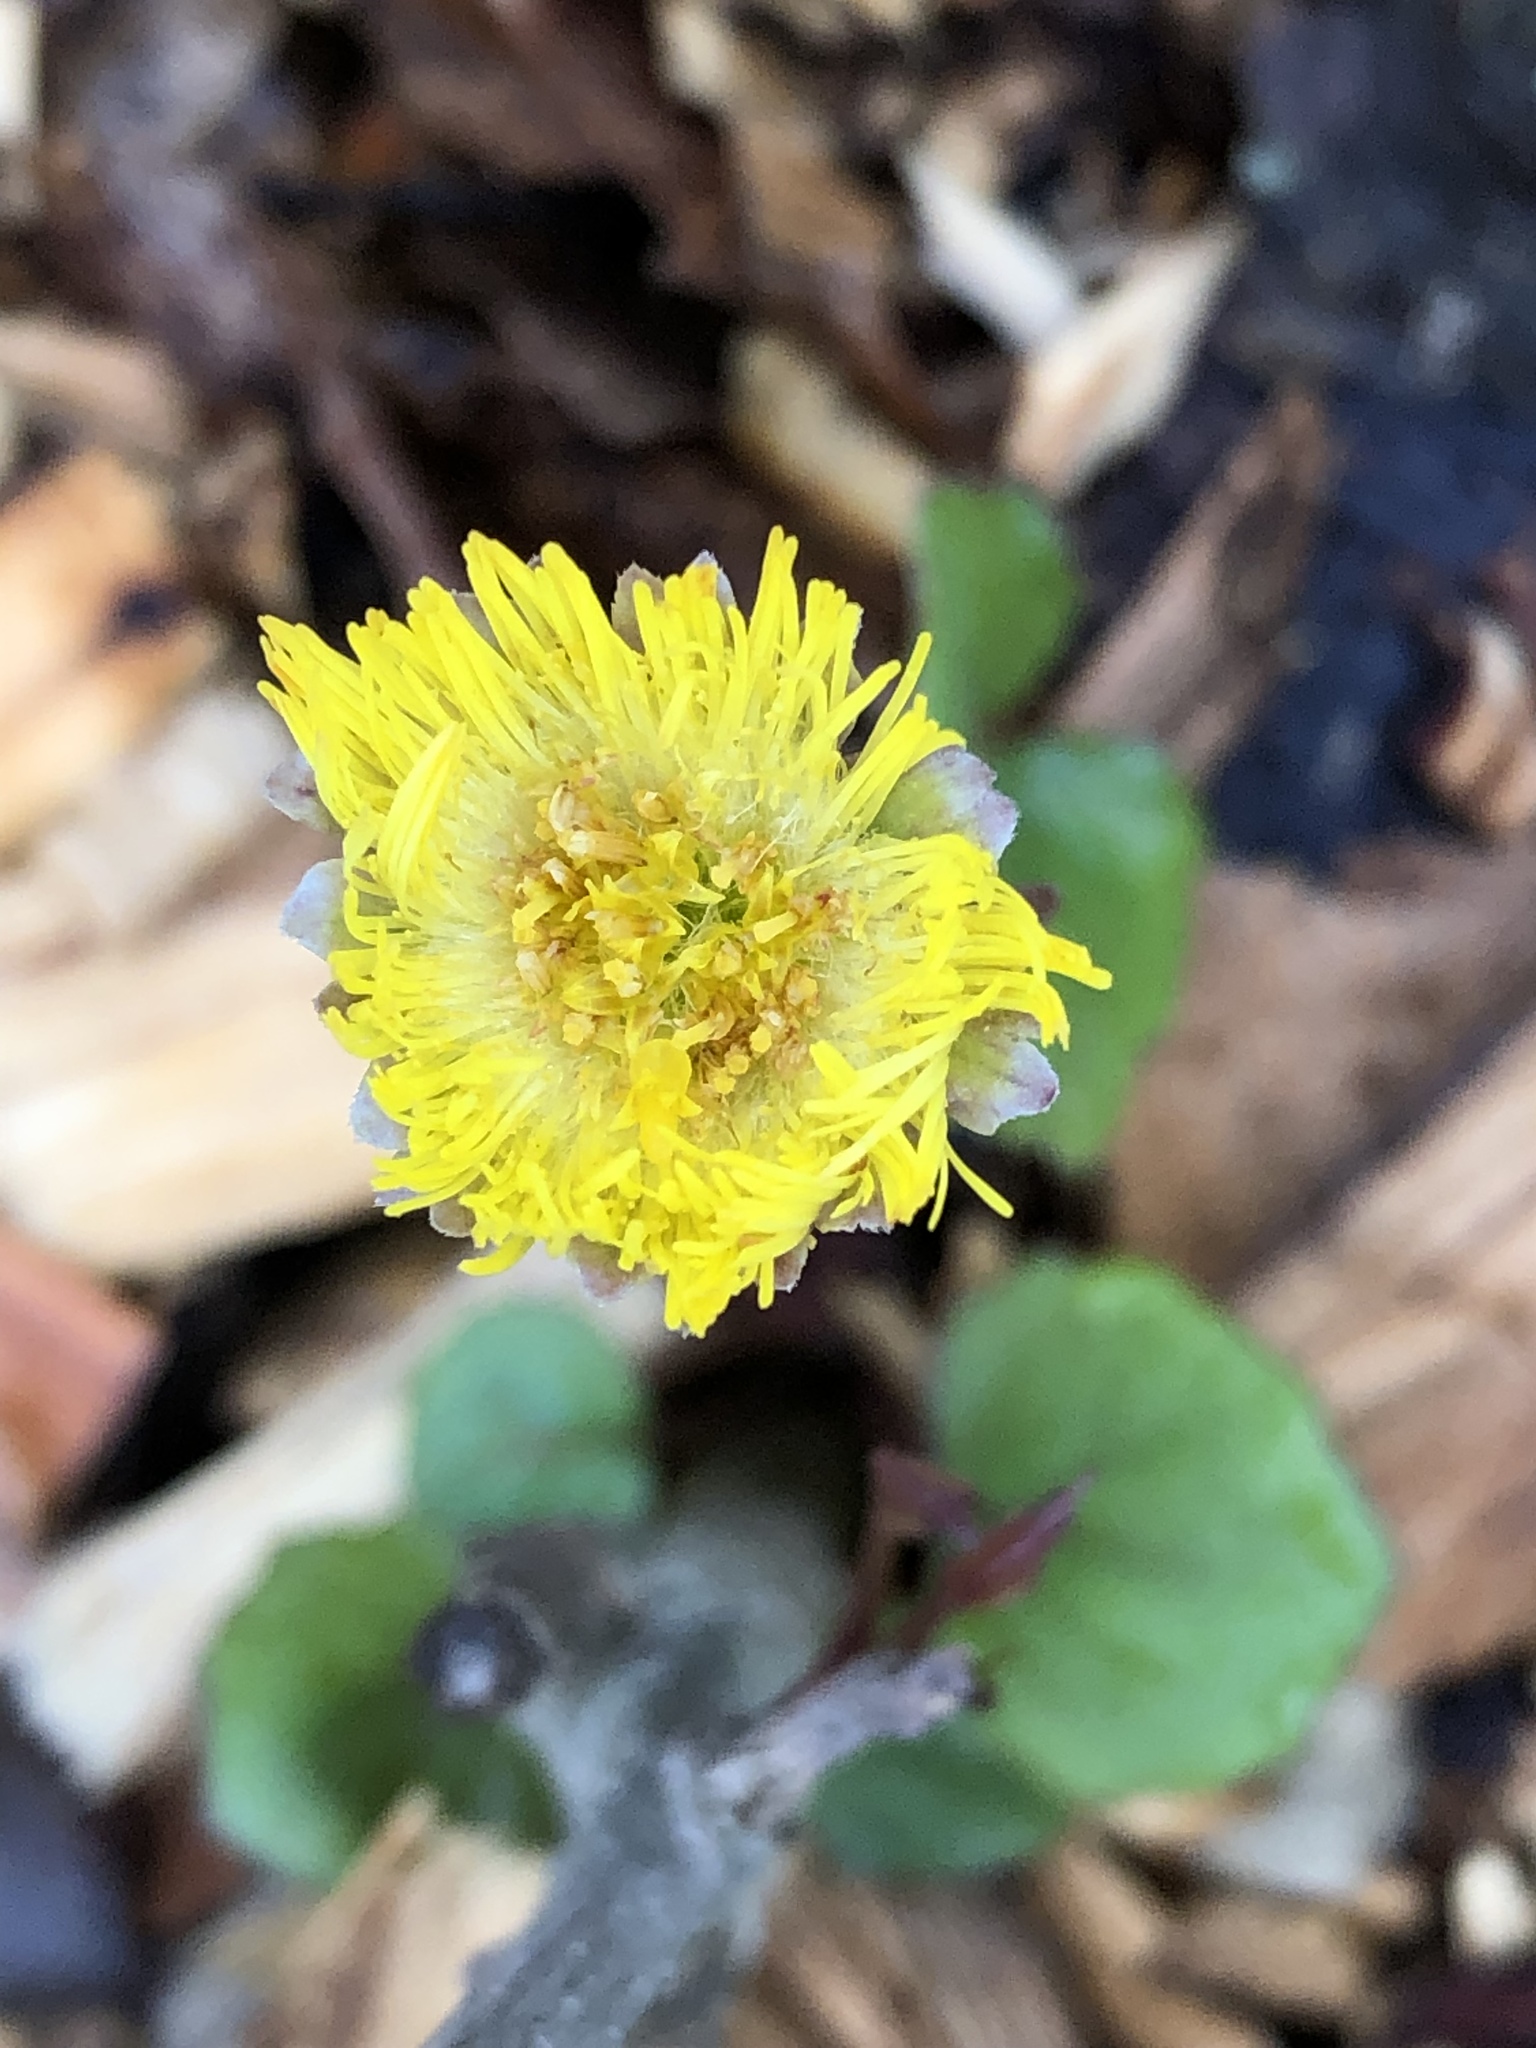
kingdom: Plantae
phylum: Tracheophyta
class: Magnoliopsida
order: Asterales
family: Asteraceae
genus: Tussilago
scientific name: Tussilago farfara
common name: Coltsfoot
